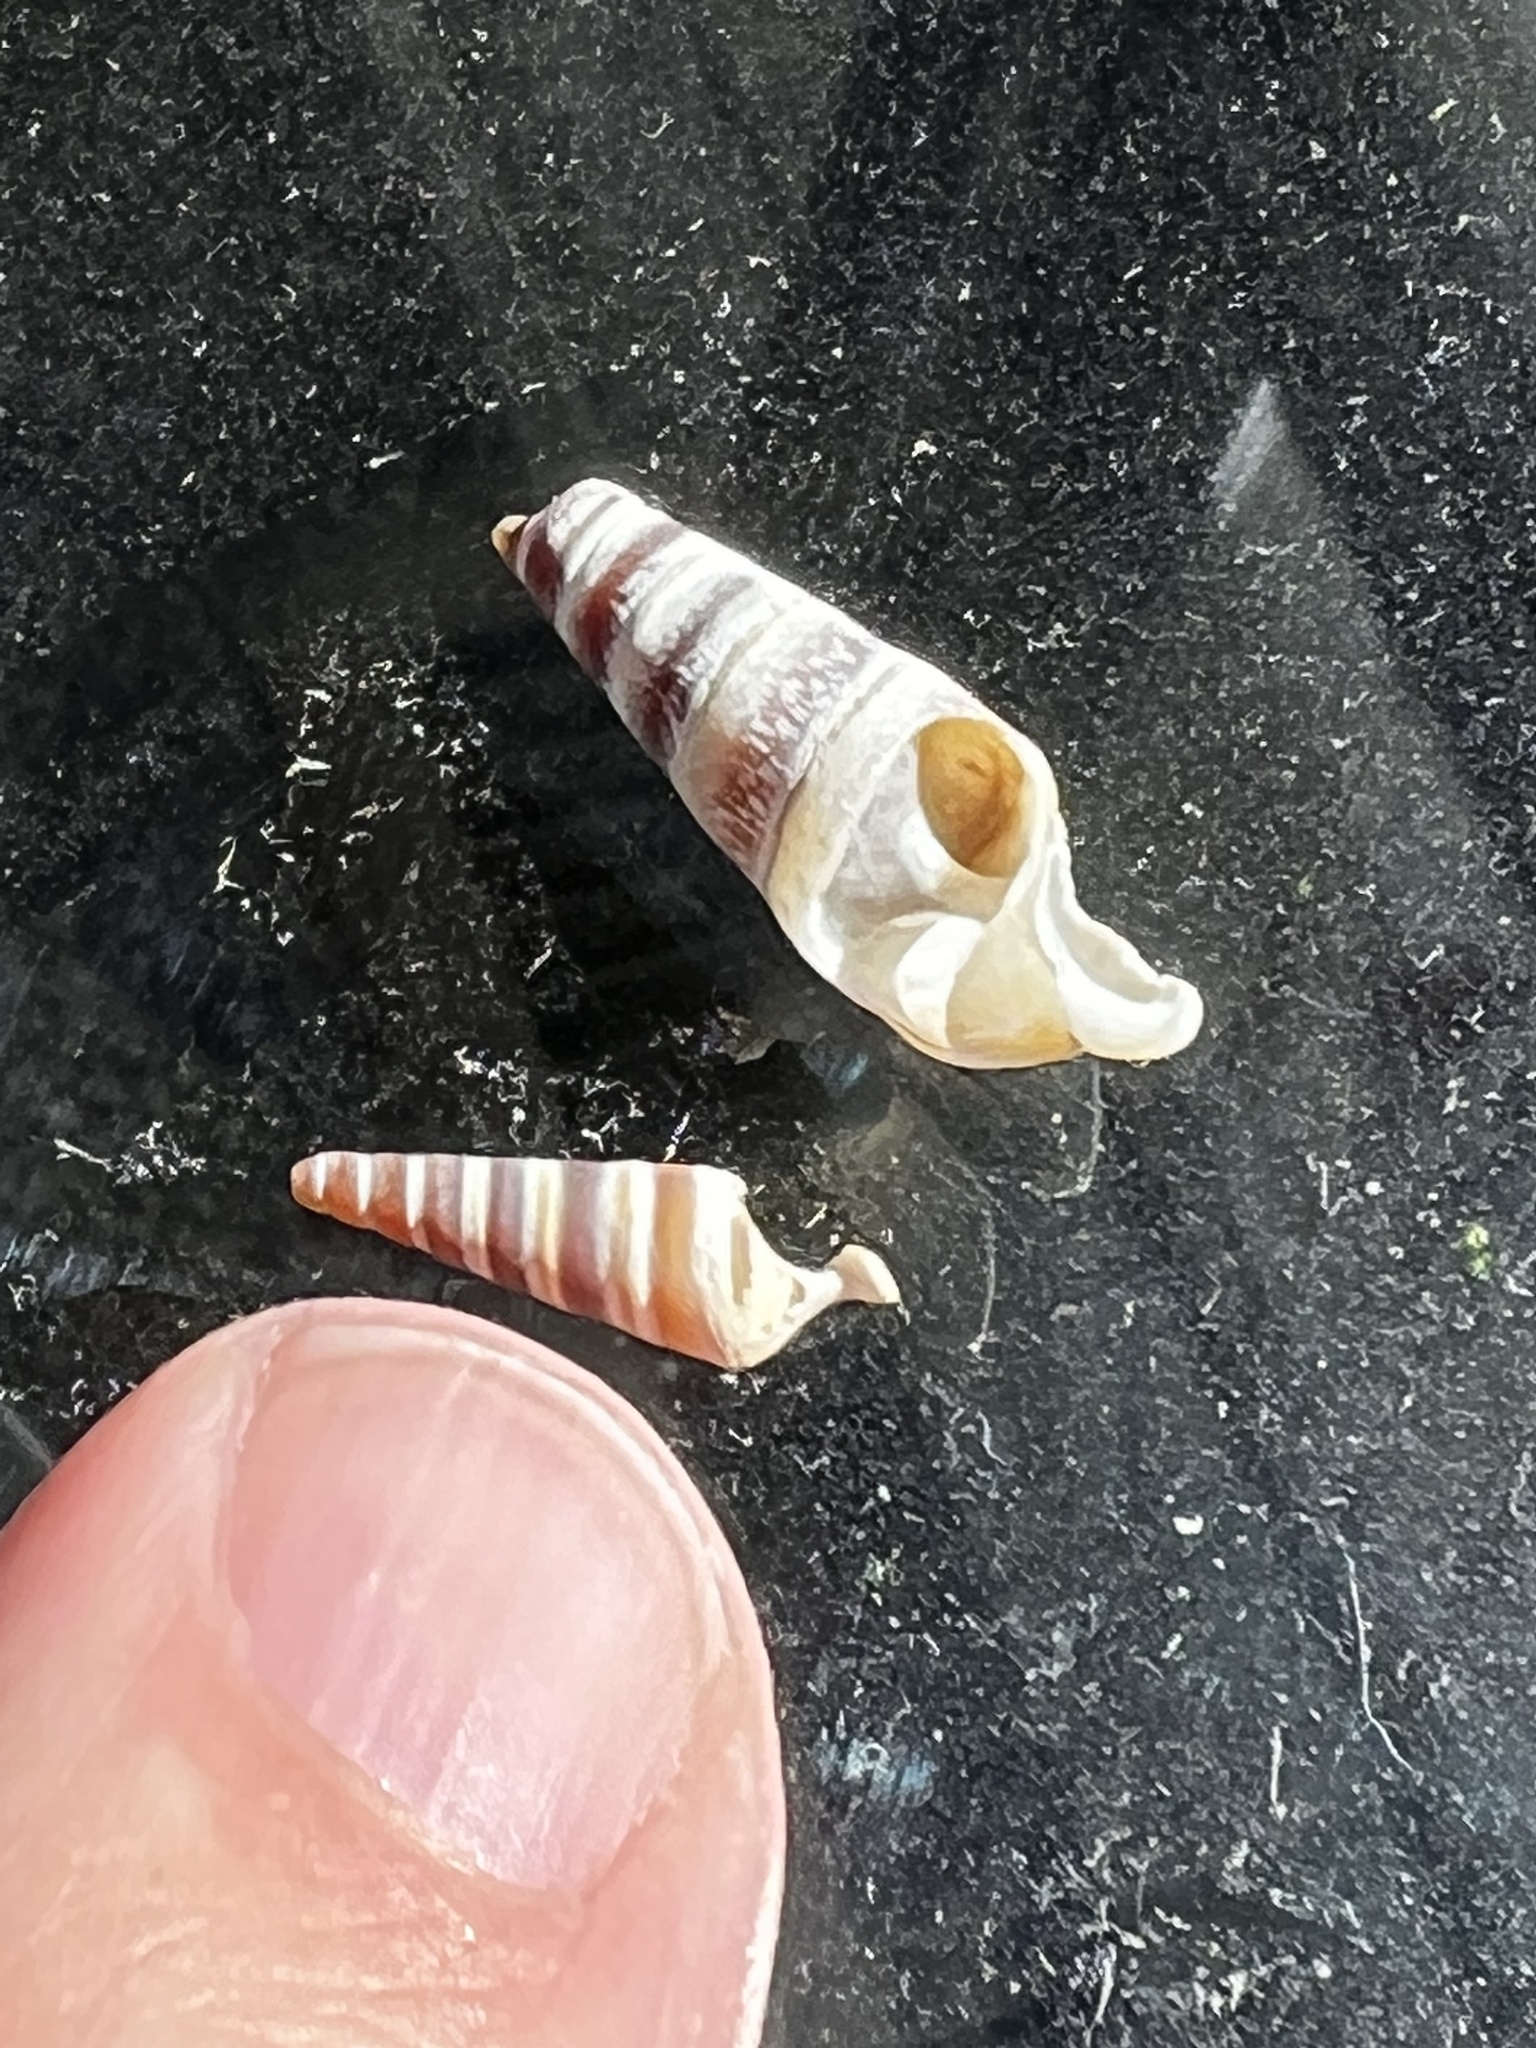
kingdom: Animalia
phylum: Mollusca
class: Gastropoda
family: Pleuroceridae
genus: Pleurocera
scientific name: Pleurocera acuta
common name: Sharp hornsnail
